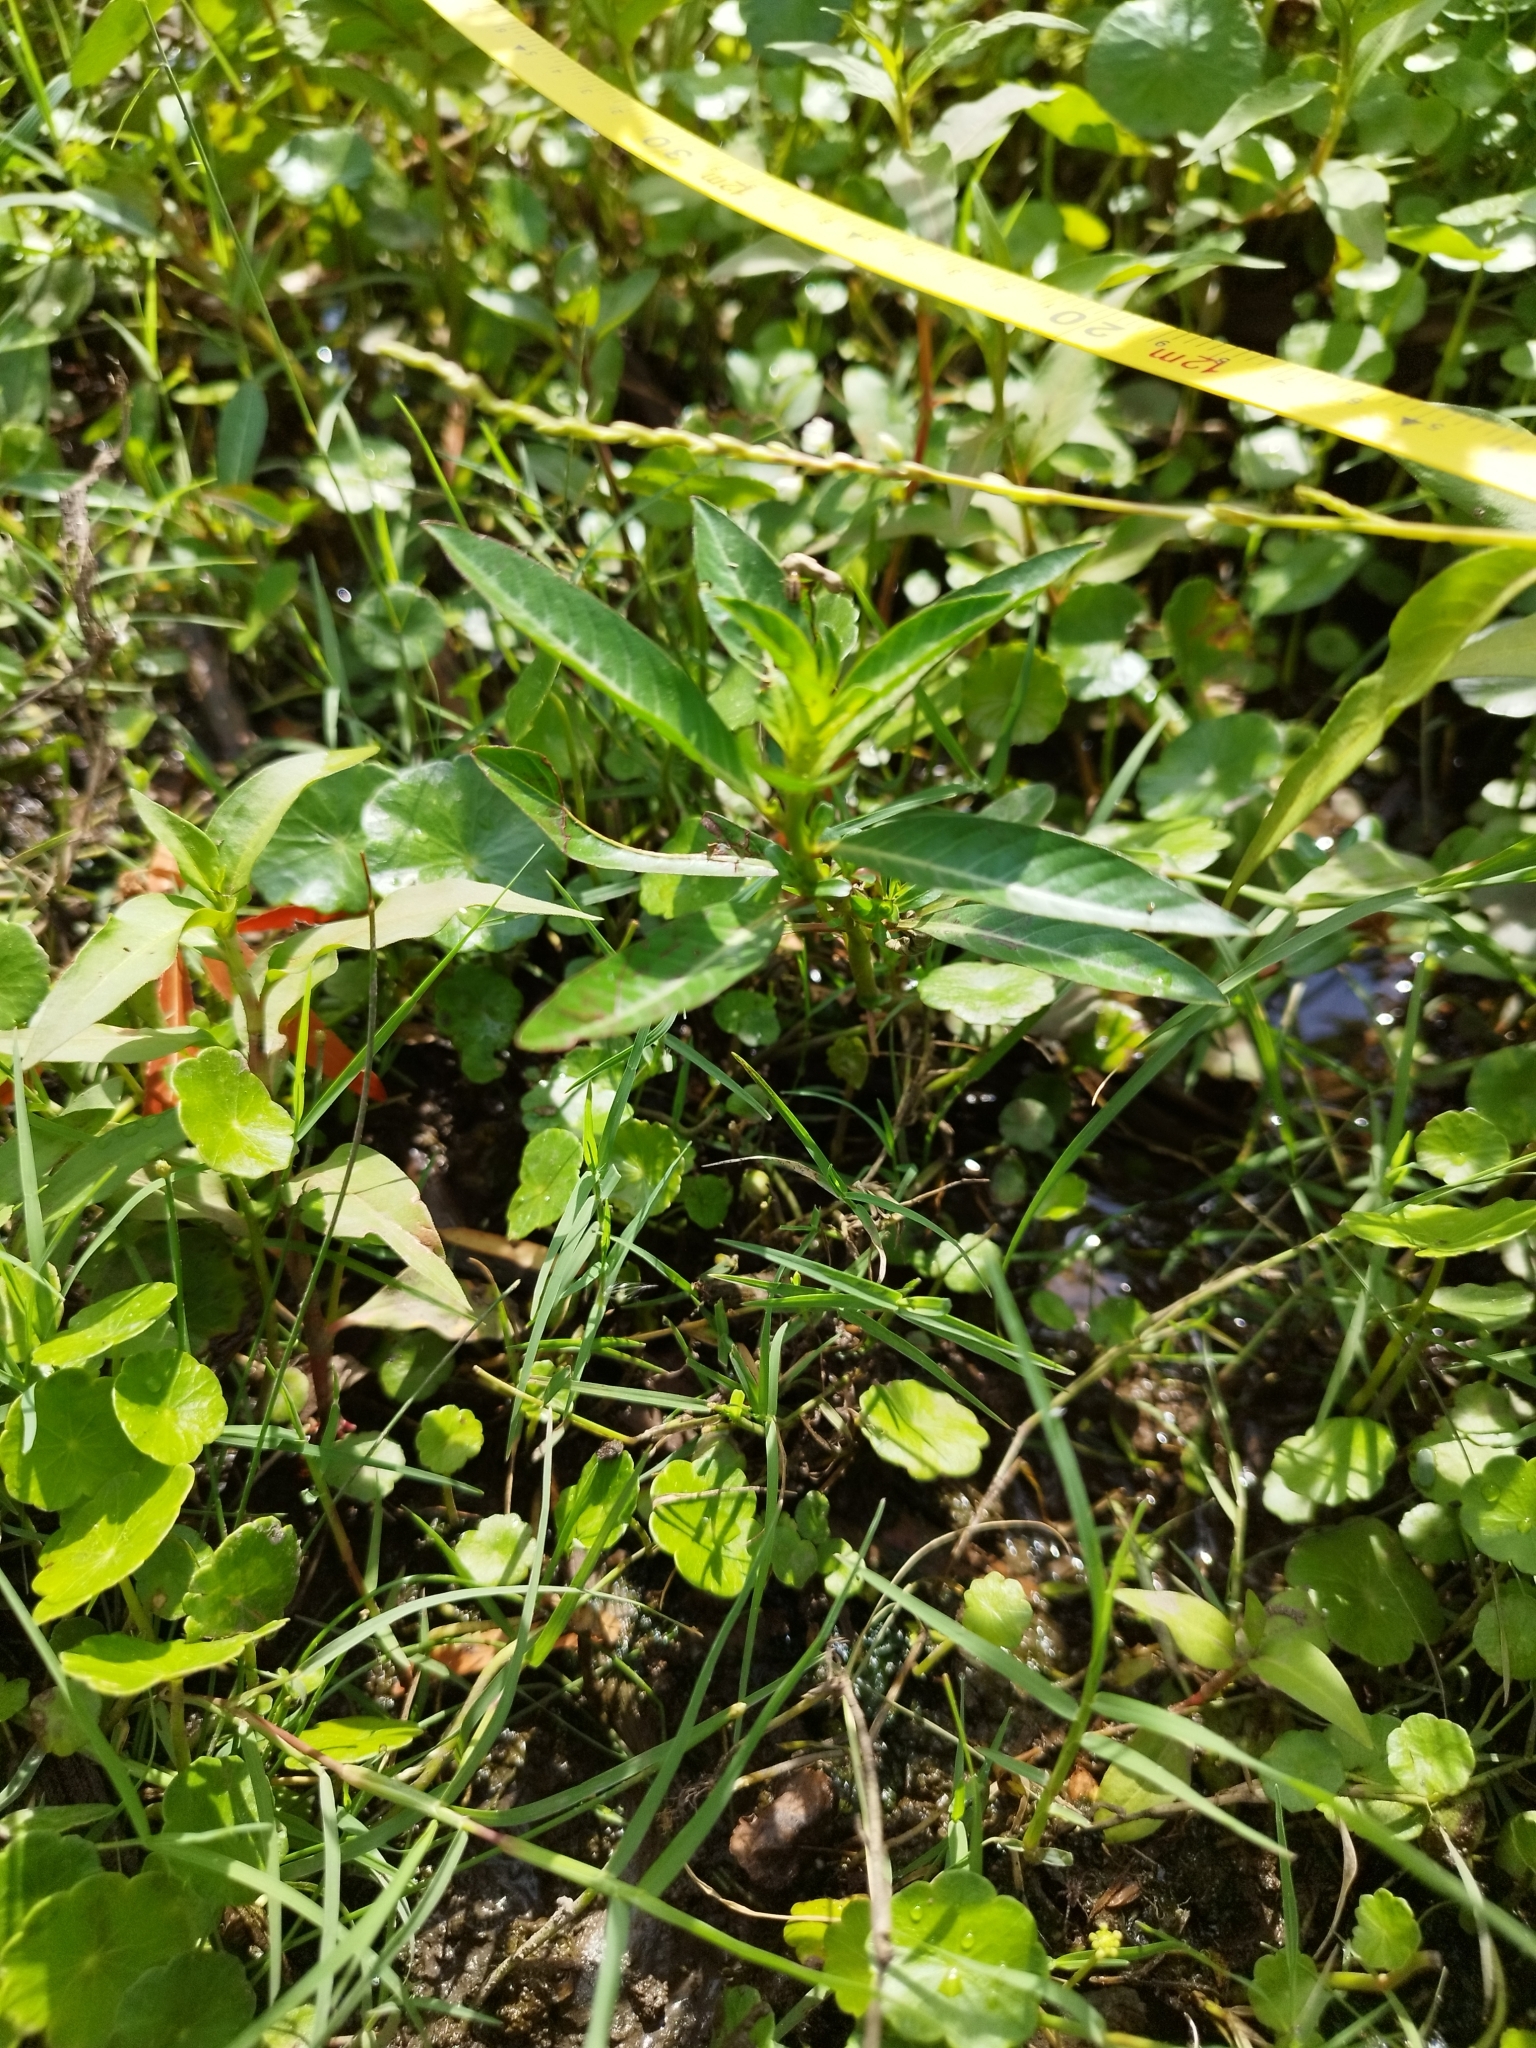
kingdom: Plantae
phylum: Tracheophyta
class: Magnoliopsida
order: Myrtales
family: Onagraceae
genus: Ludwigia
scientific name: Ludwigia peploides
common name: Floating primrose-willow
